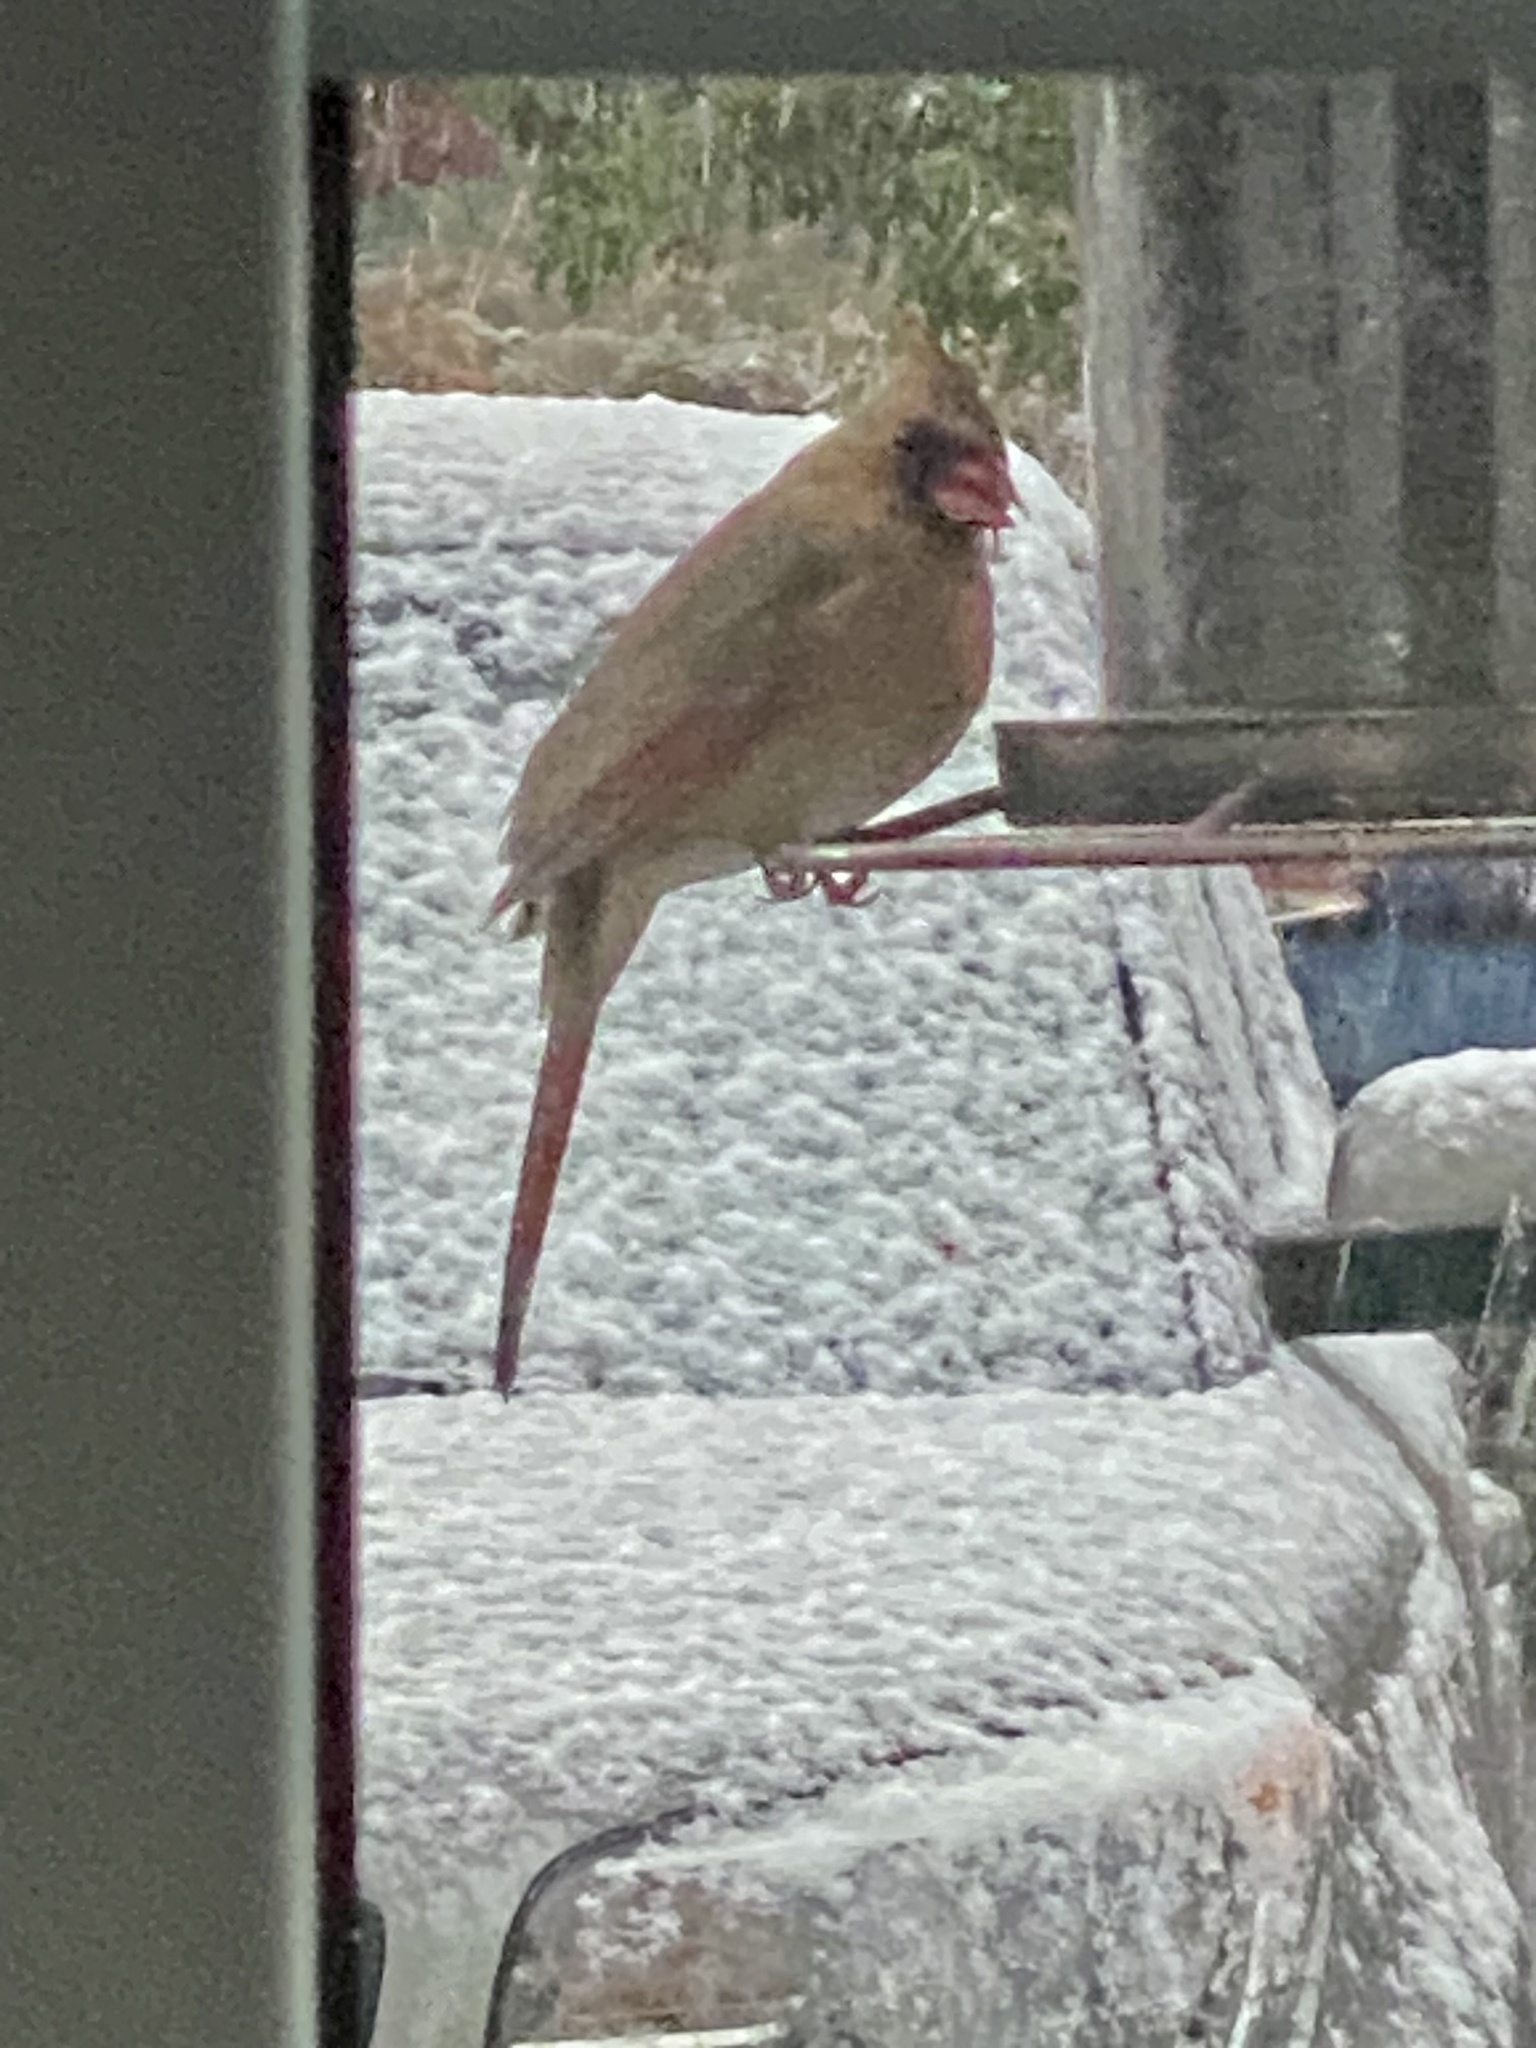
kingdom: Animalia
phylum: Chordata
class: Aves
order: Passeriformes
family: Cardinalidae
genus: Cardinalis
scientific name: Cardinalis cardinalis
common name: Northern cardinal
